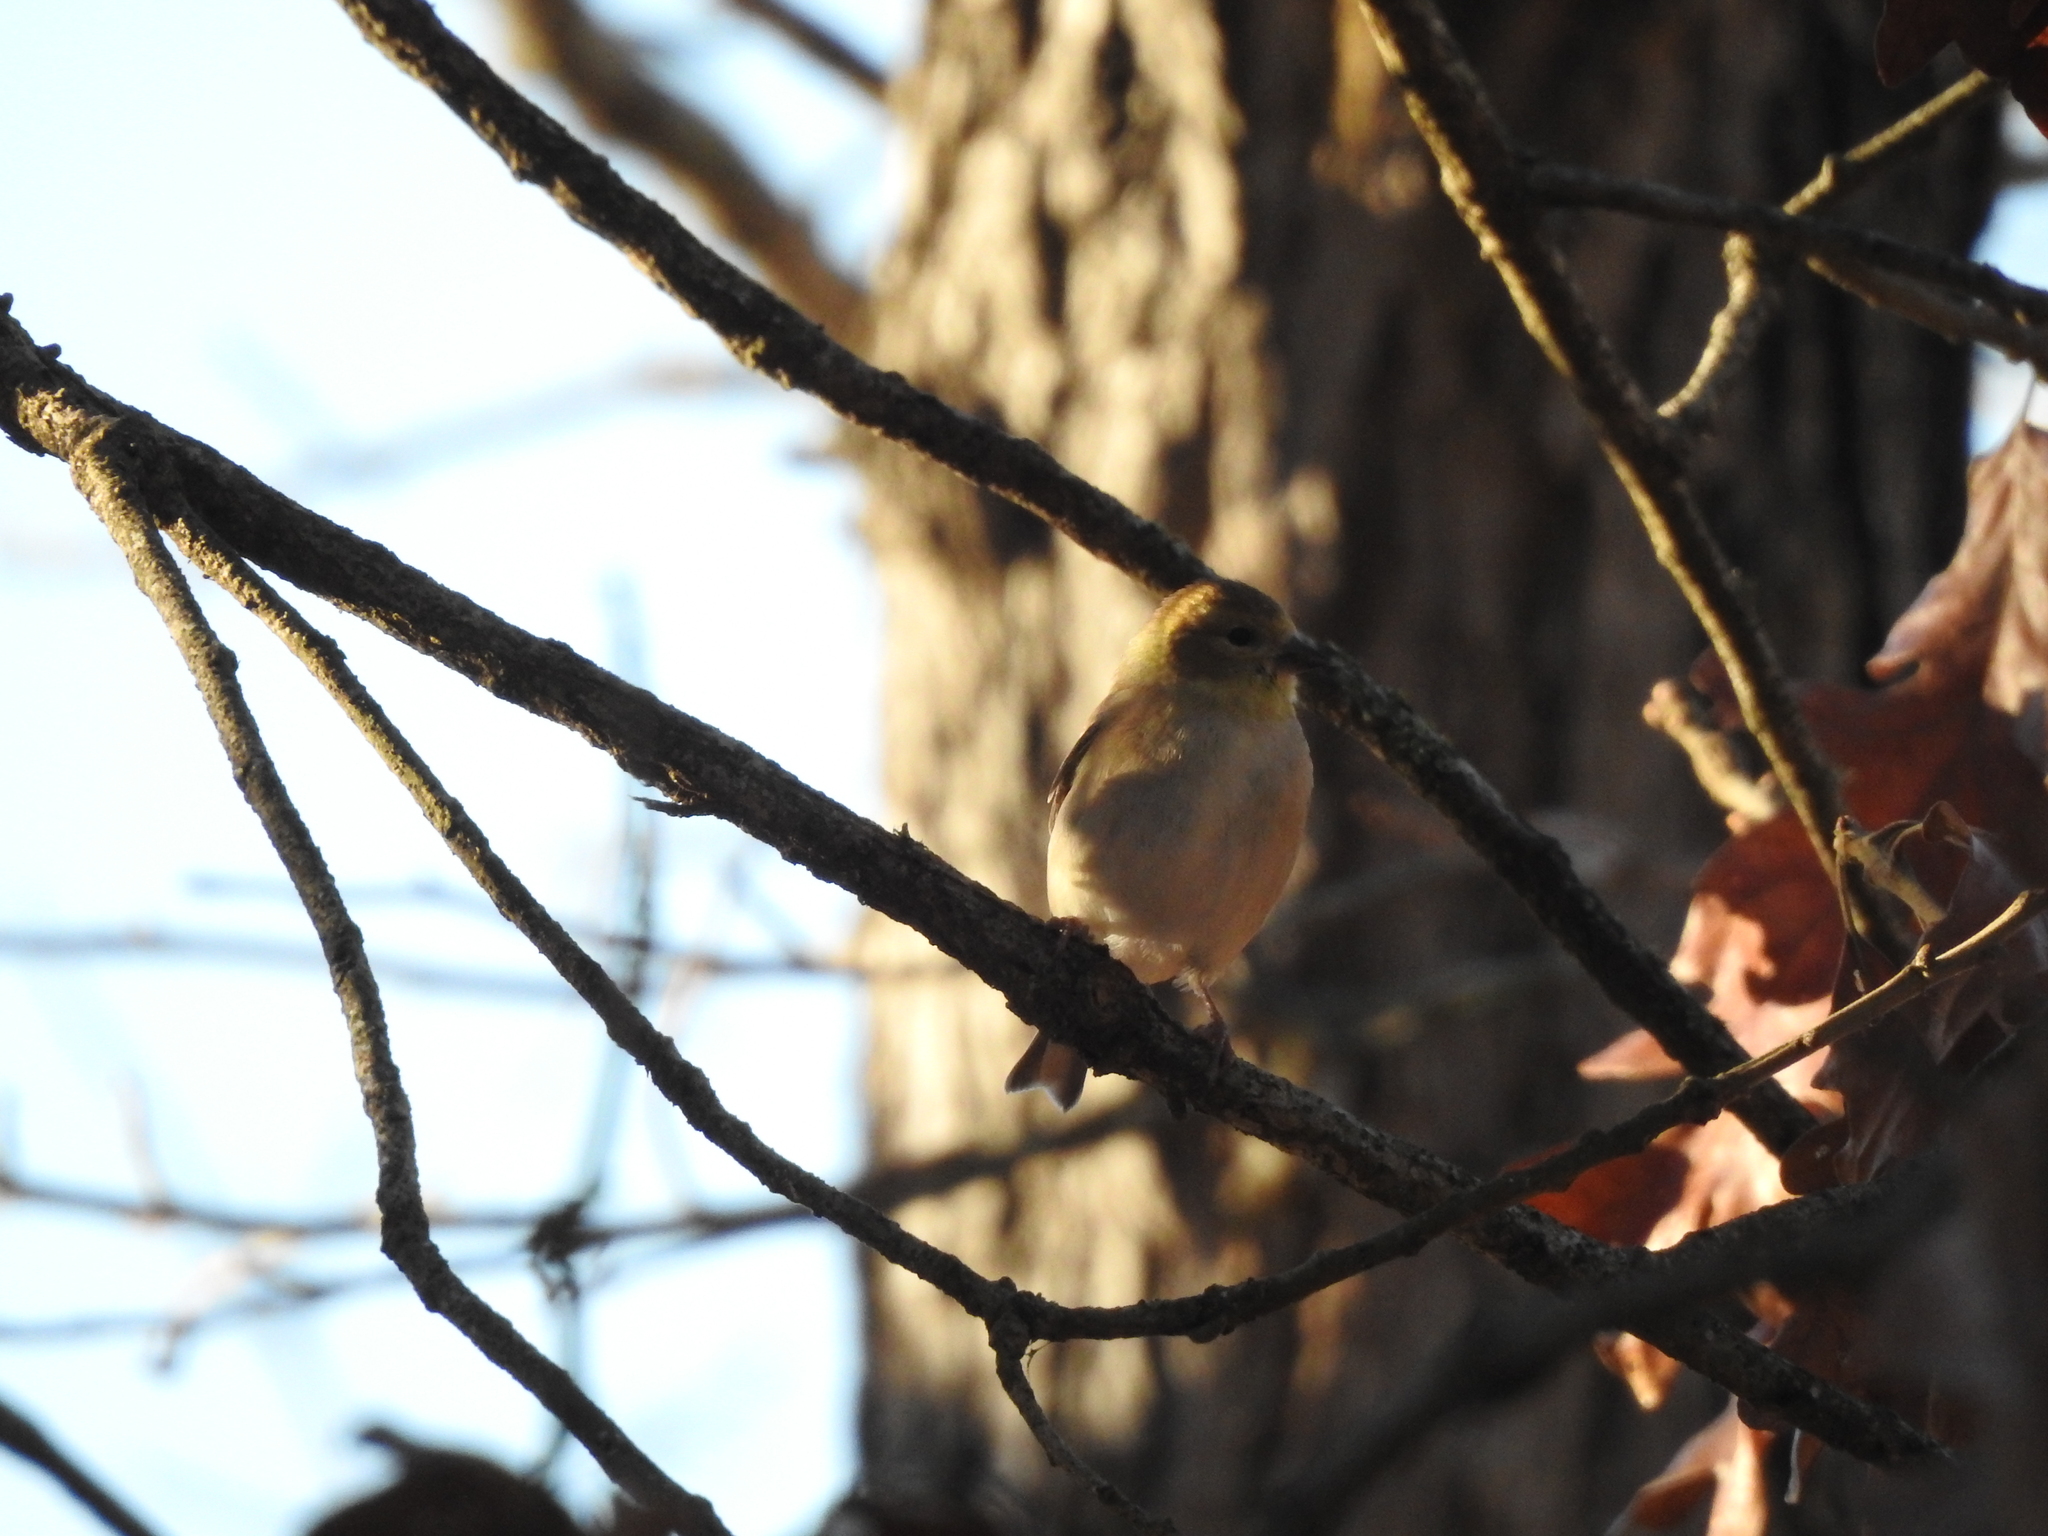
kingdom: Animalia
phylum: Chordata
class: Aves
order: Passeriformes
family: Fringillidae
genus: Spinus
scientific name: Spinus tristis
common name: American goldfinch
